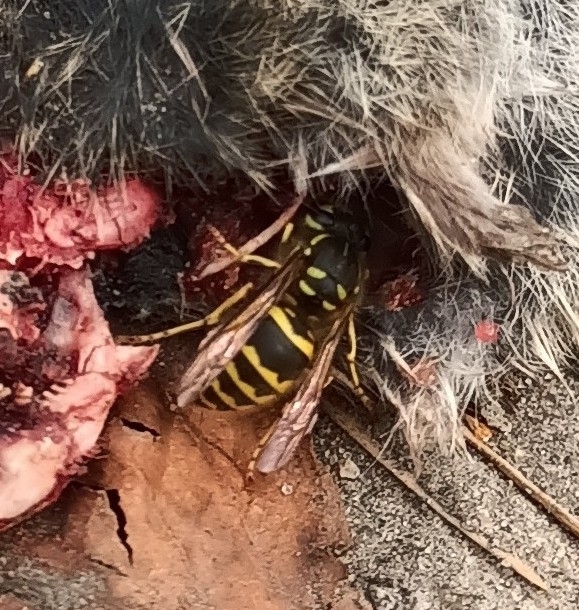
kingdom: Animalia
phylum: Arthropoda
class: Insecta
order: Hymenoptera
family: Vespidae
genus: Vespula
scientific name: Vespula vulgaris
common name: Common wasp
